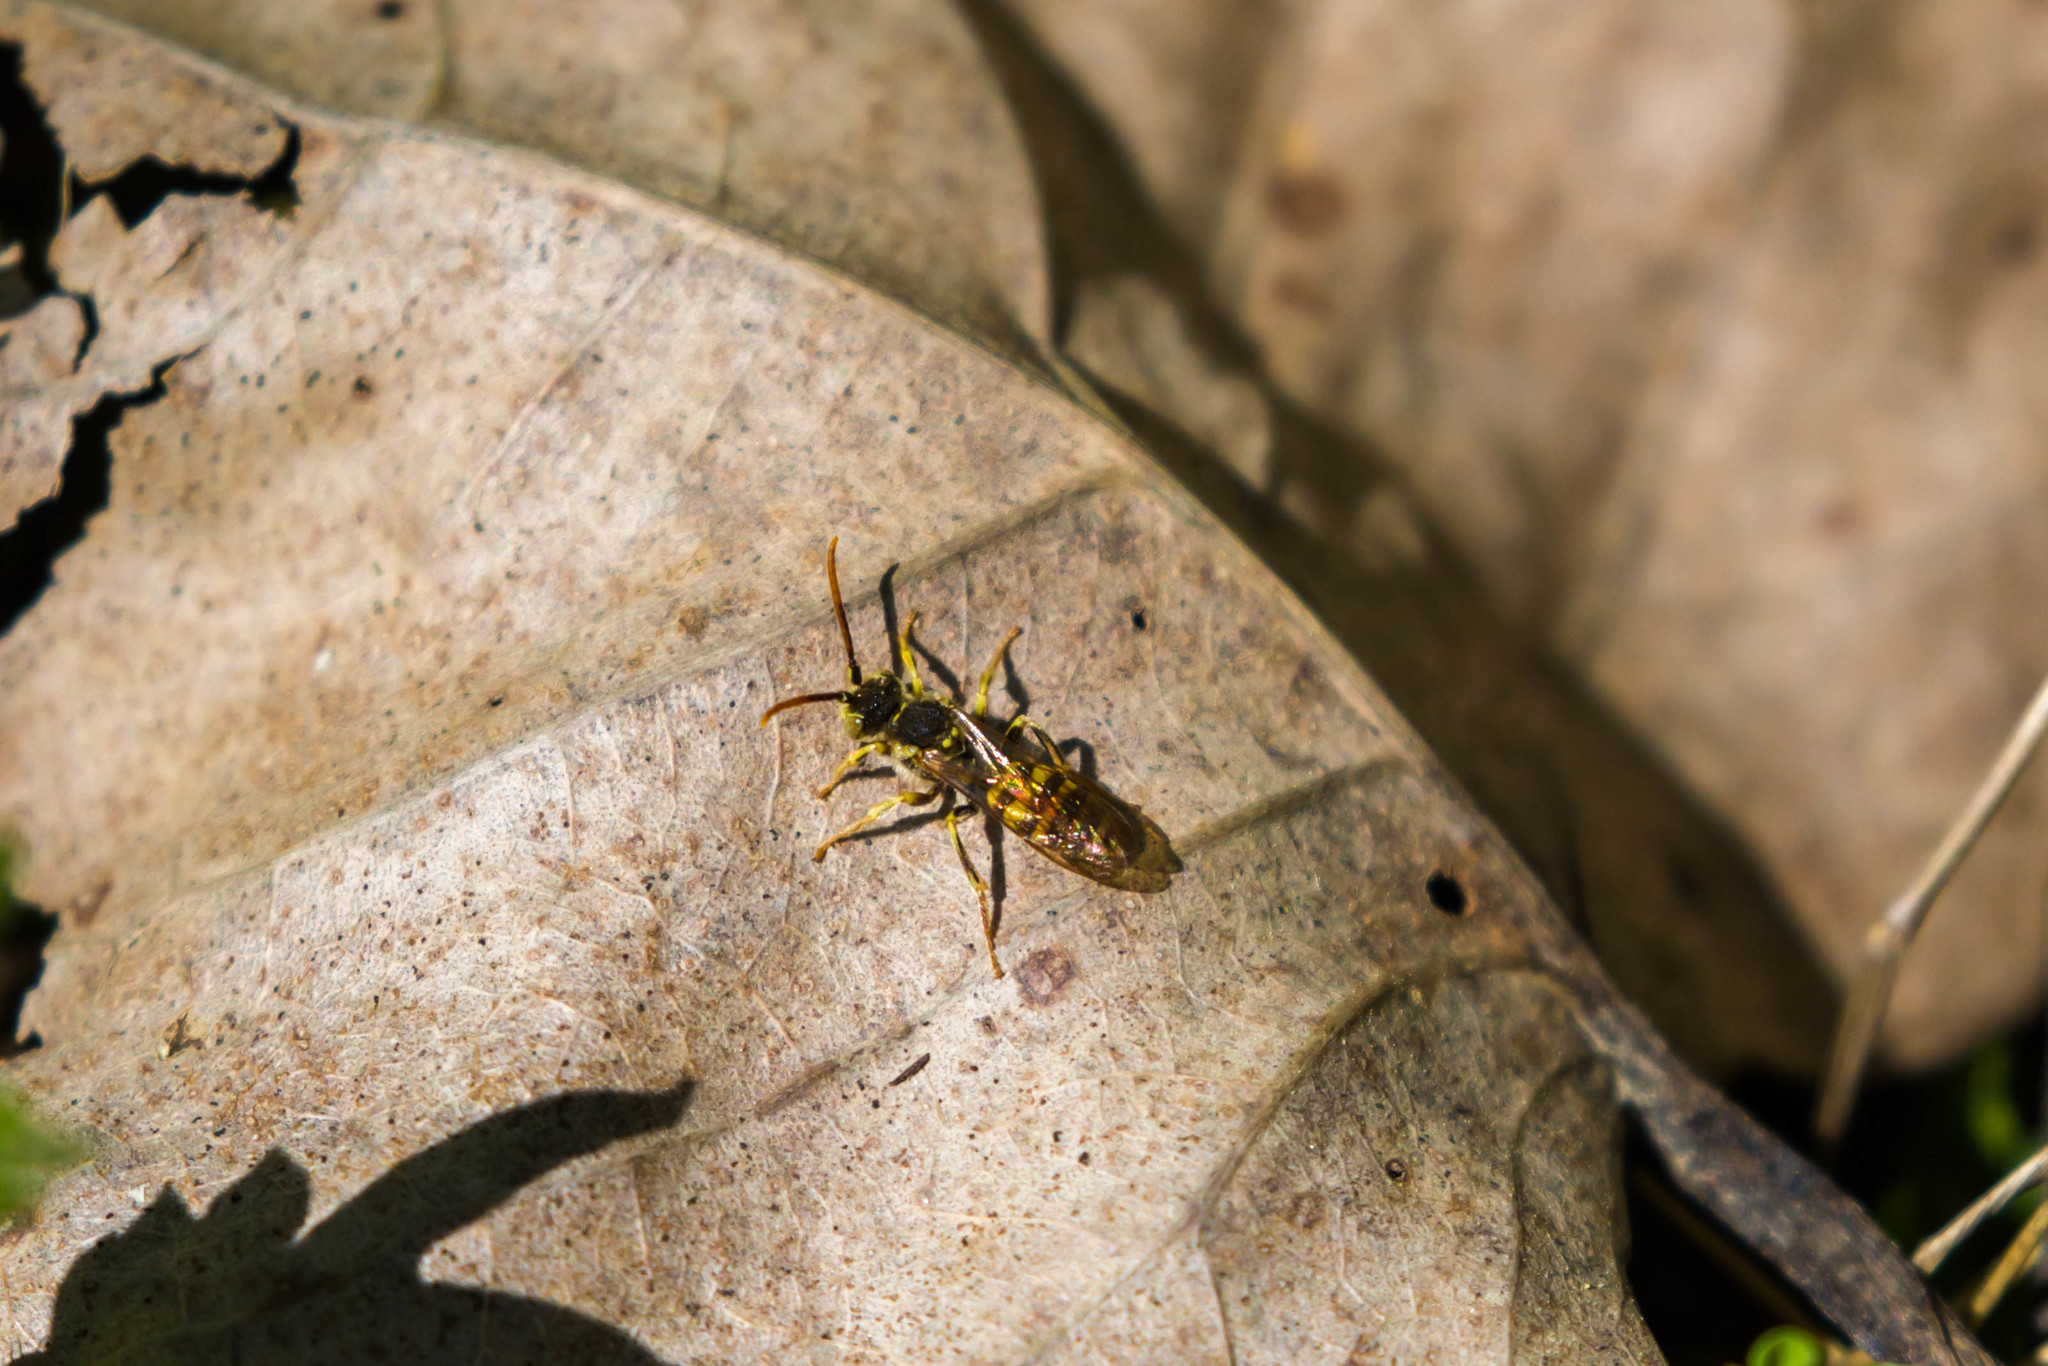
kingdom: Animalia
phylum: Arthropoda
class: Insecta
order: Hymenoptera
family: Apidae
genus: Nomada
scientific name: Nomada luteoloides
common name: Black-and-yellow nomad bee
